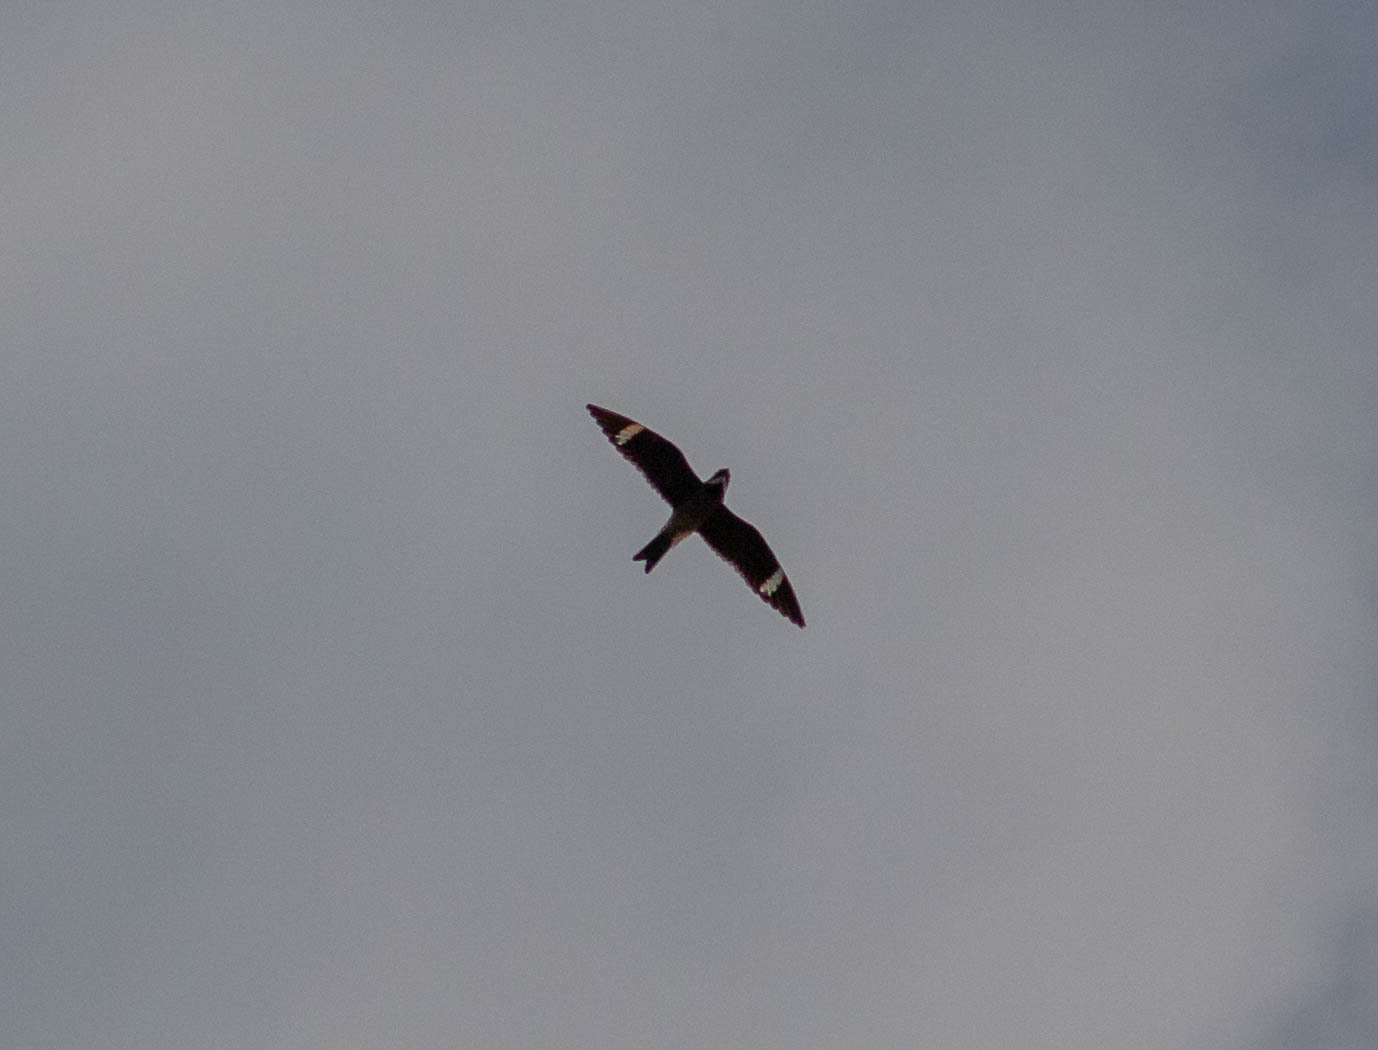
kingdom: Animalia
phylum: Chordata
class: Aves
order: Caprimulgiformes
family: Caprimulgidae
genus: Chordeiles
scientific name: Chordeiles minor
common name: Common nighthawk
